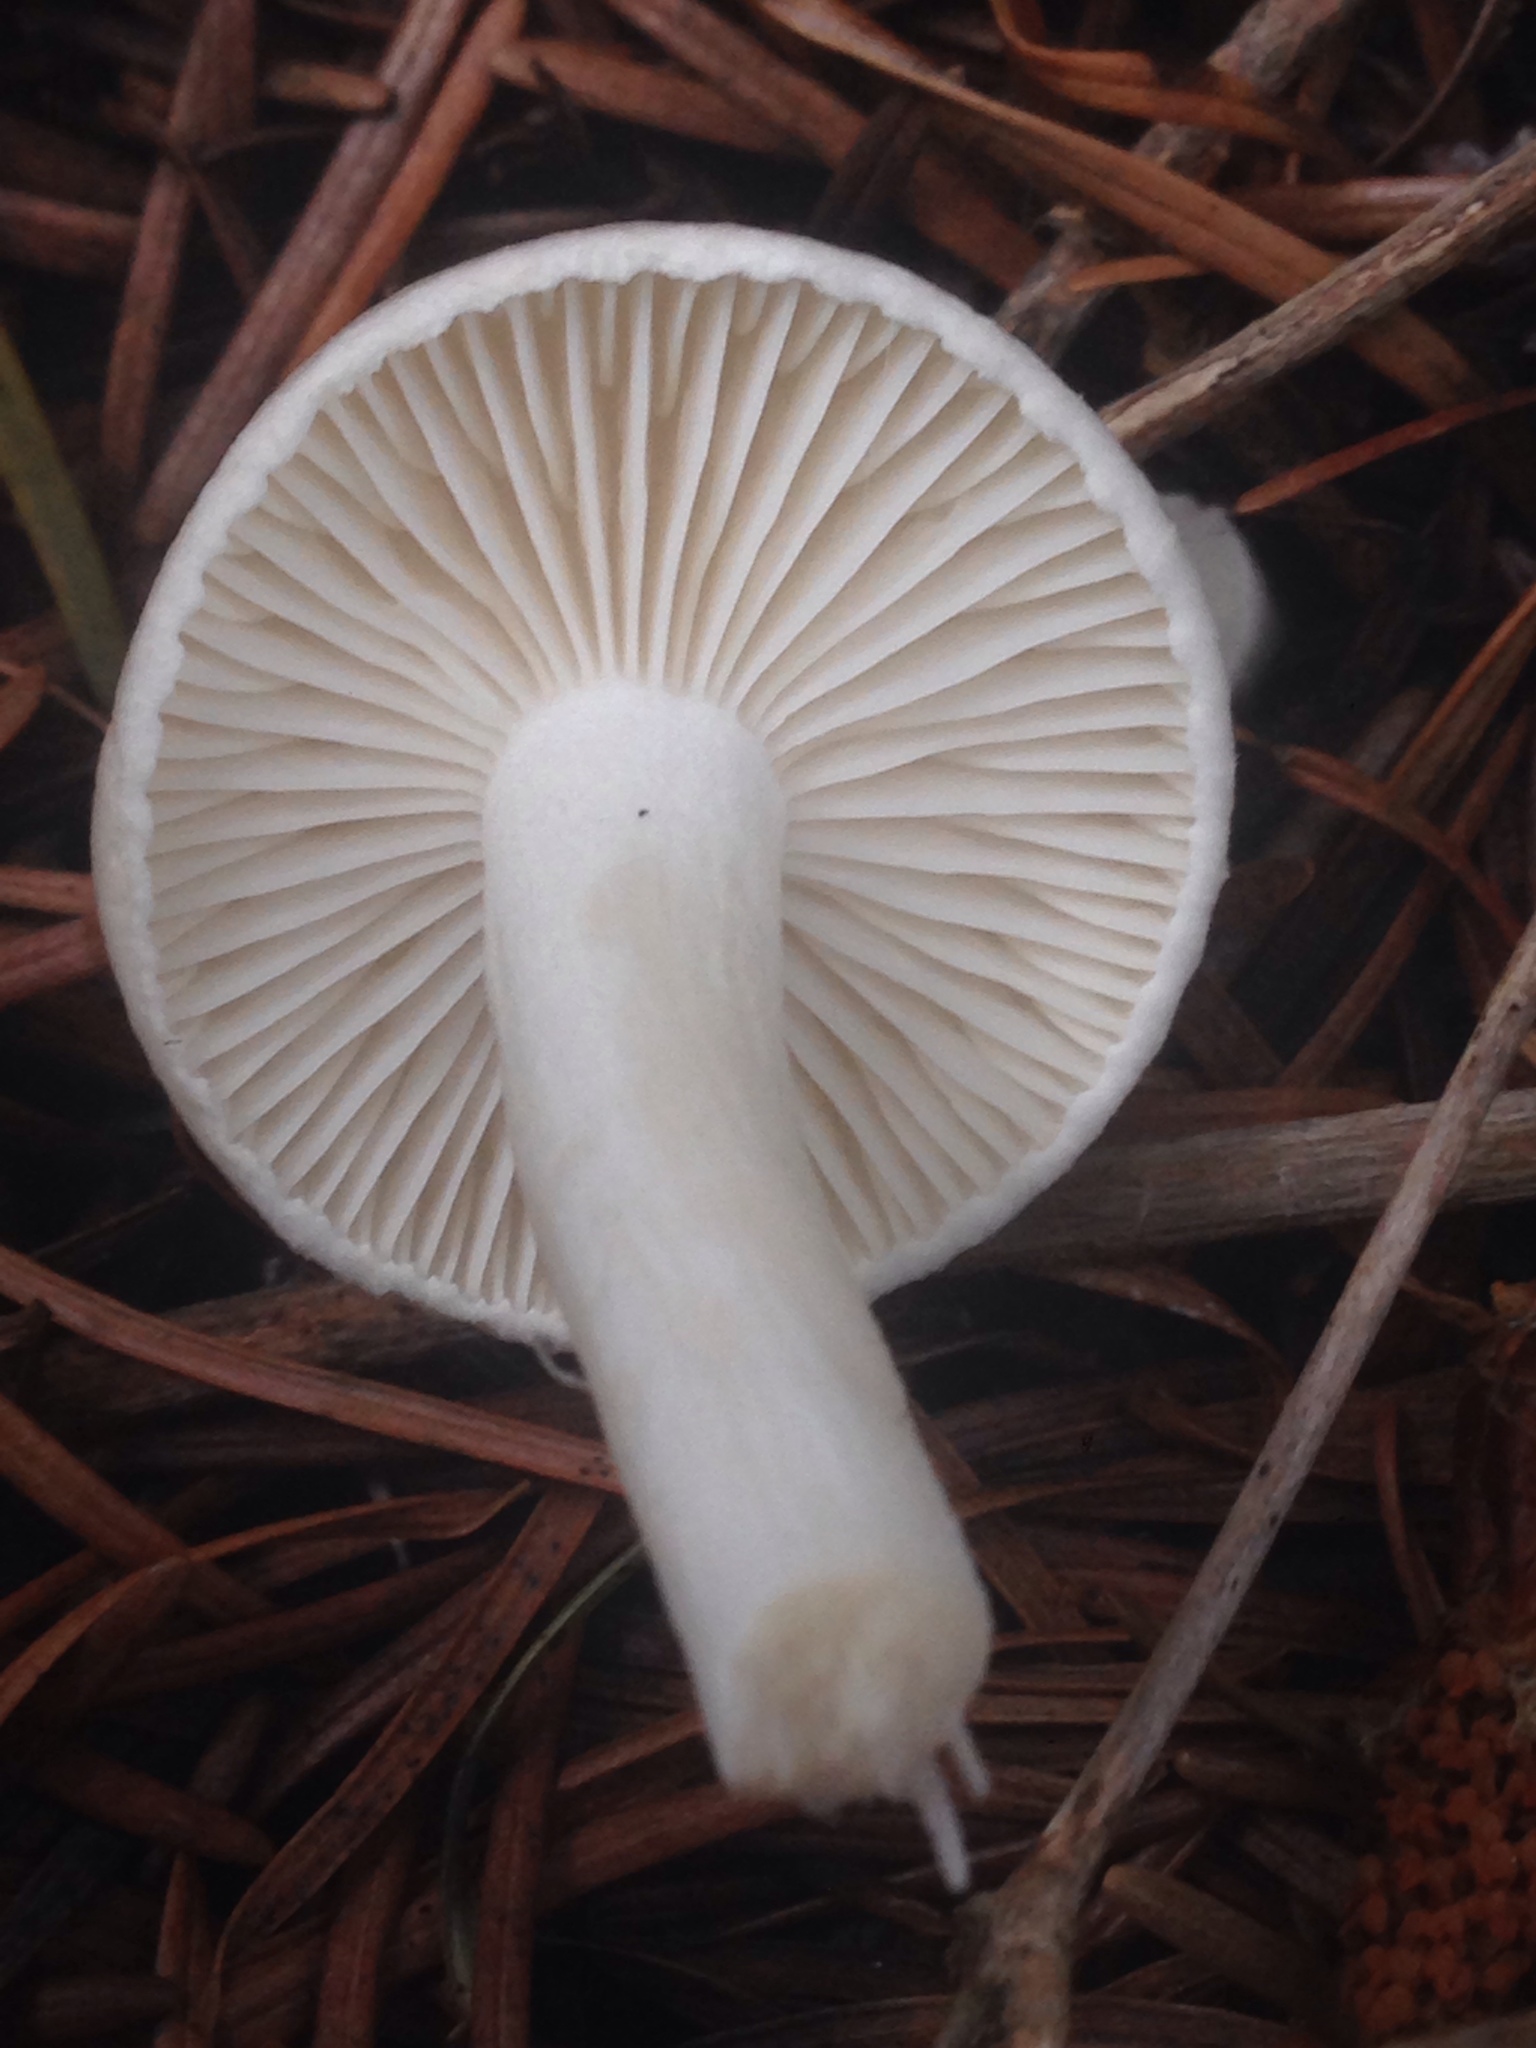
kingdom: Fungi
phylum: Basidiomycota
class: Agaricomycetes
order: Agaricales
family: Hygrophoraceae
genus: Hygrophorus
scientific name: Hygrophorus agathosmus
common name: Almond woodwax
